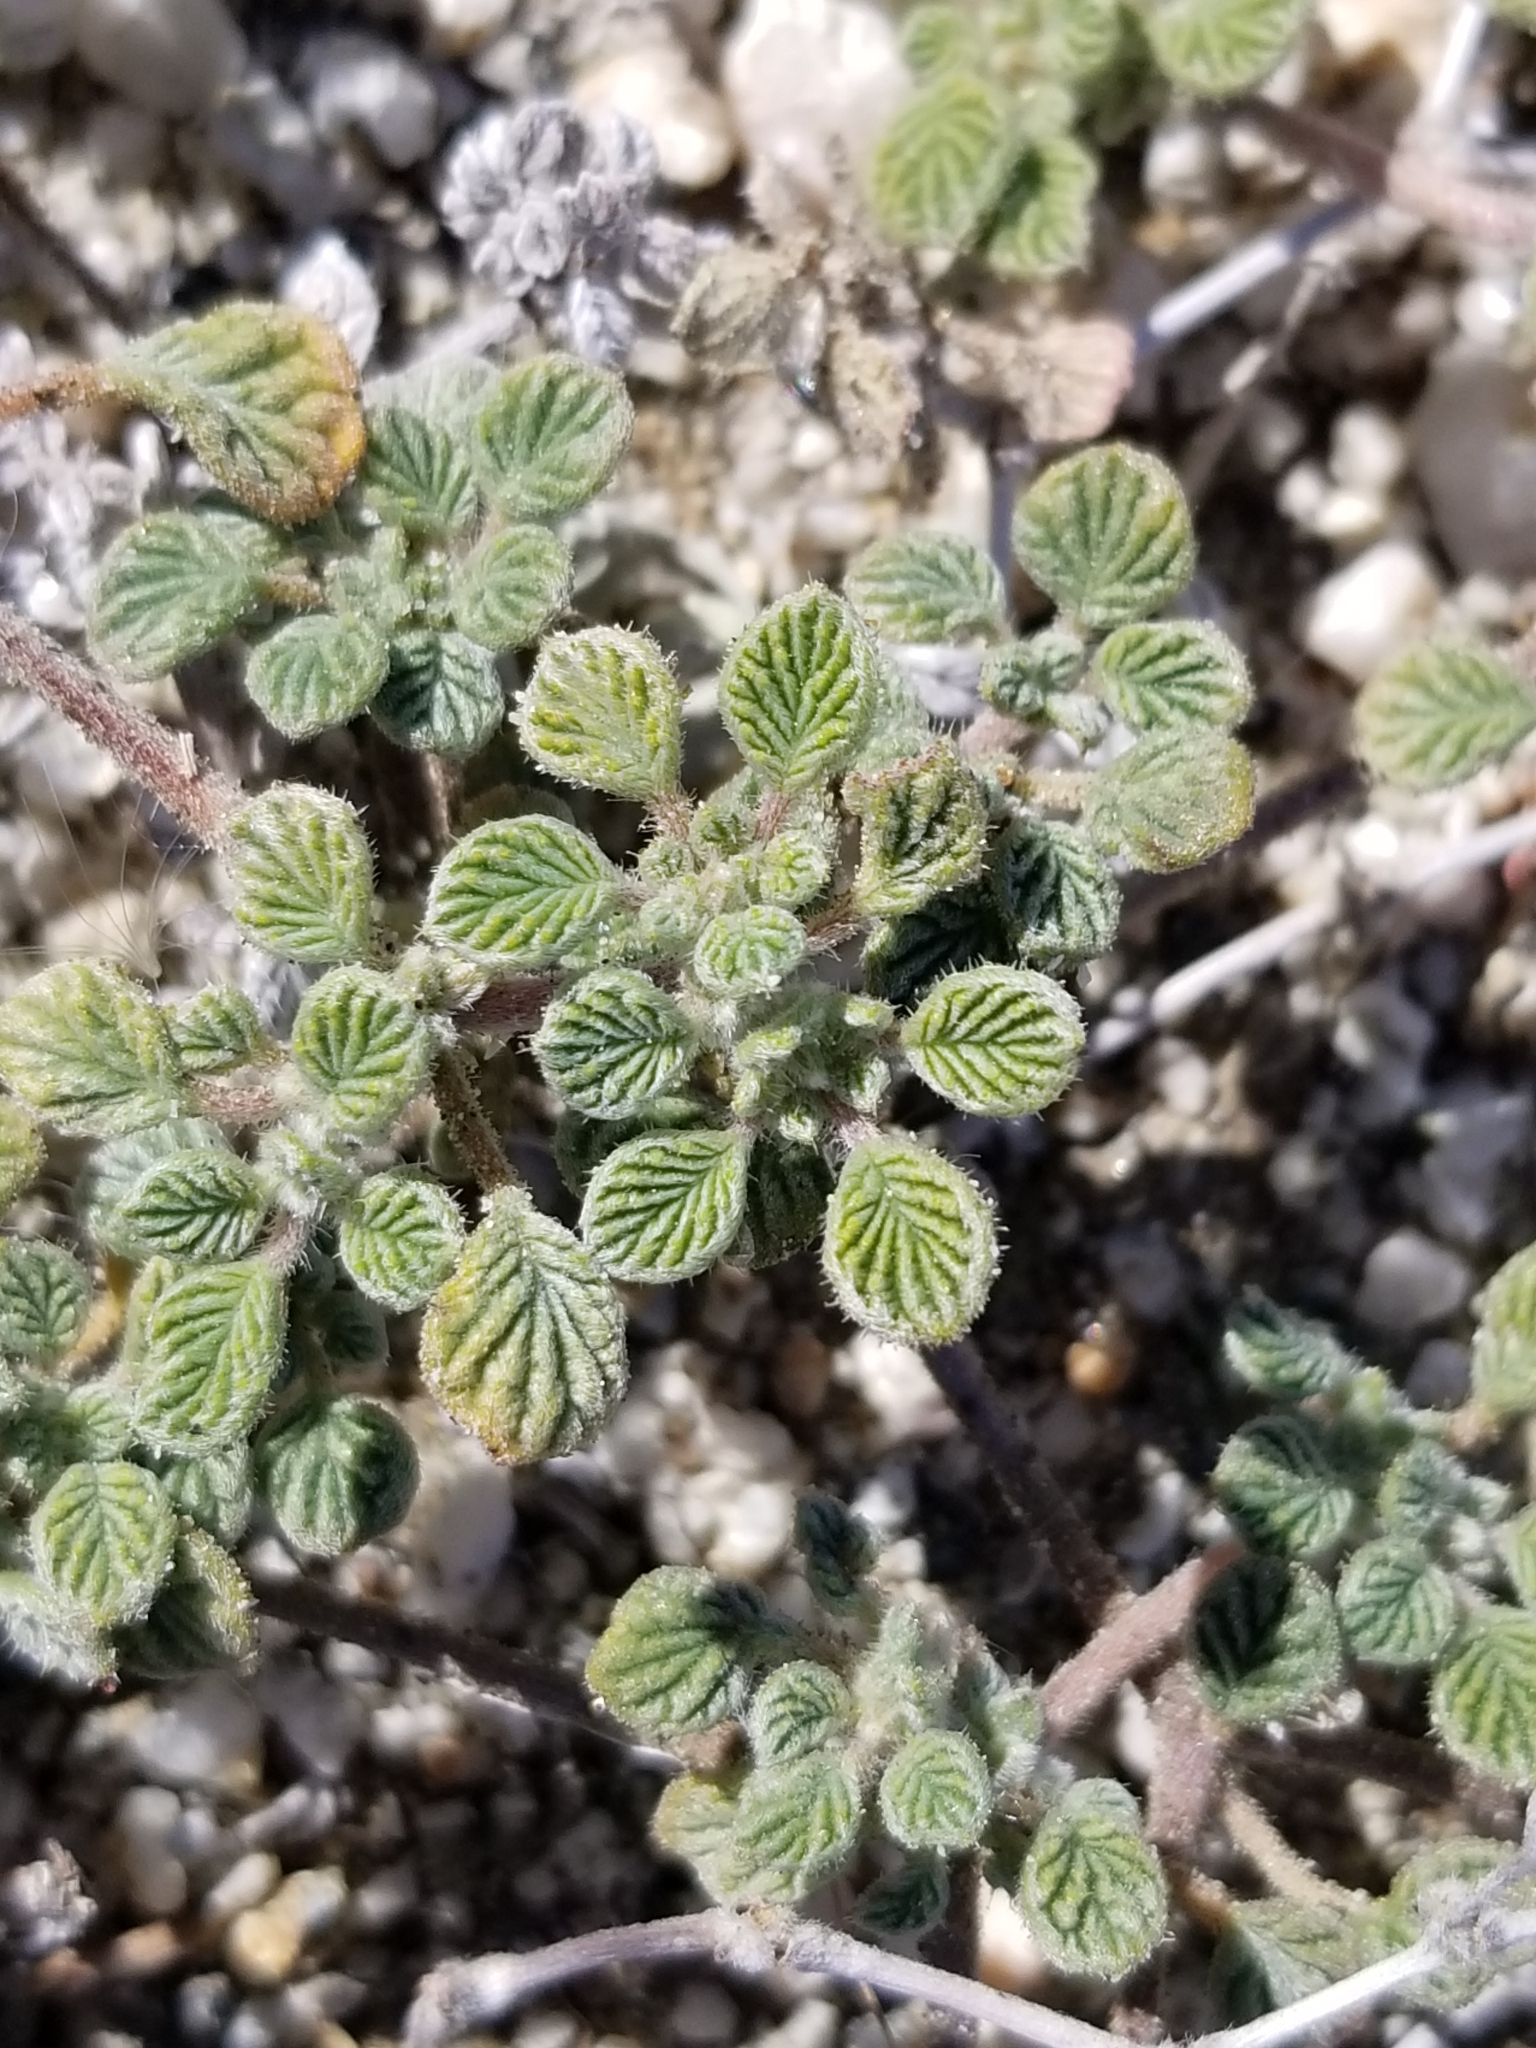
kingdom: Plantae
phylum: Tracheophyta
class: Magnoliopsida
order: Boraginales
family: Ehretiaceae
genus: Tiquilia
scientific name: Tiquilia plicata
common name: Fan-leaf tiquilia
